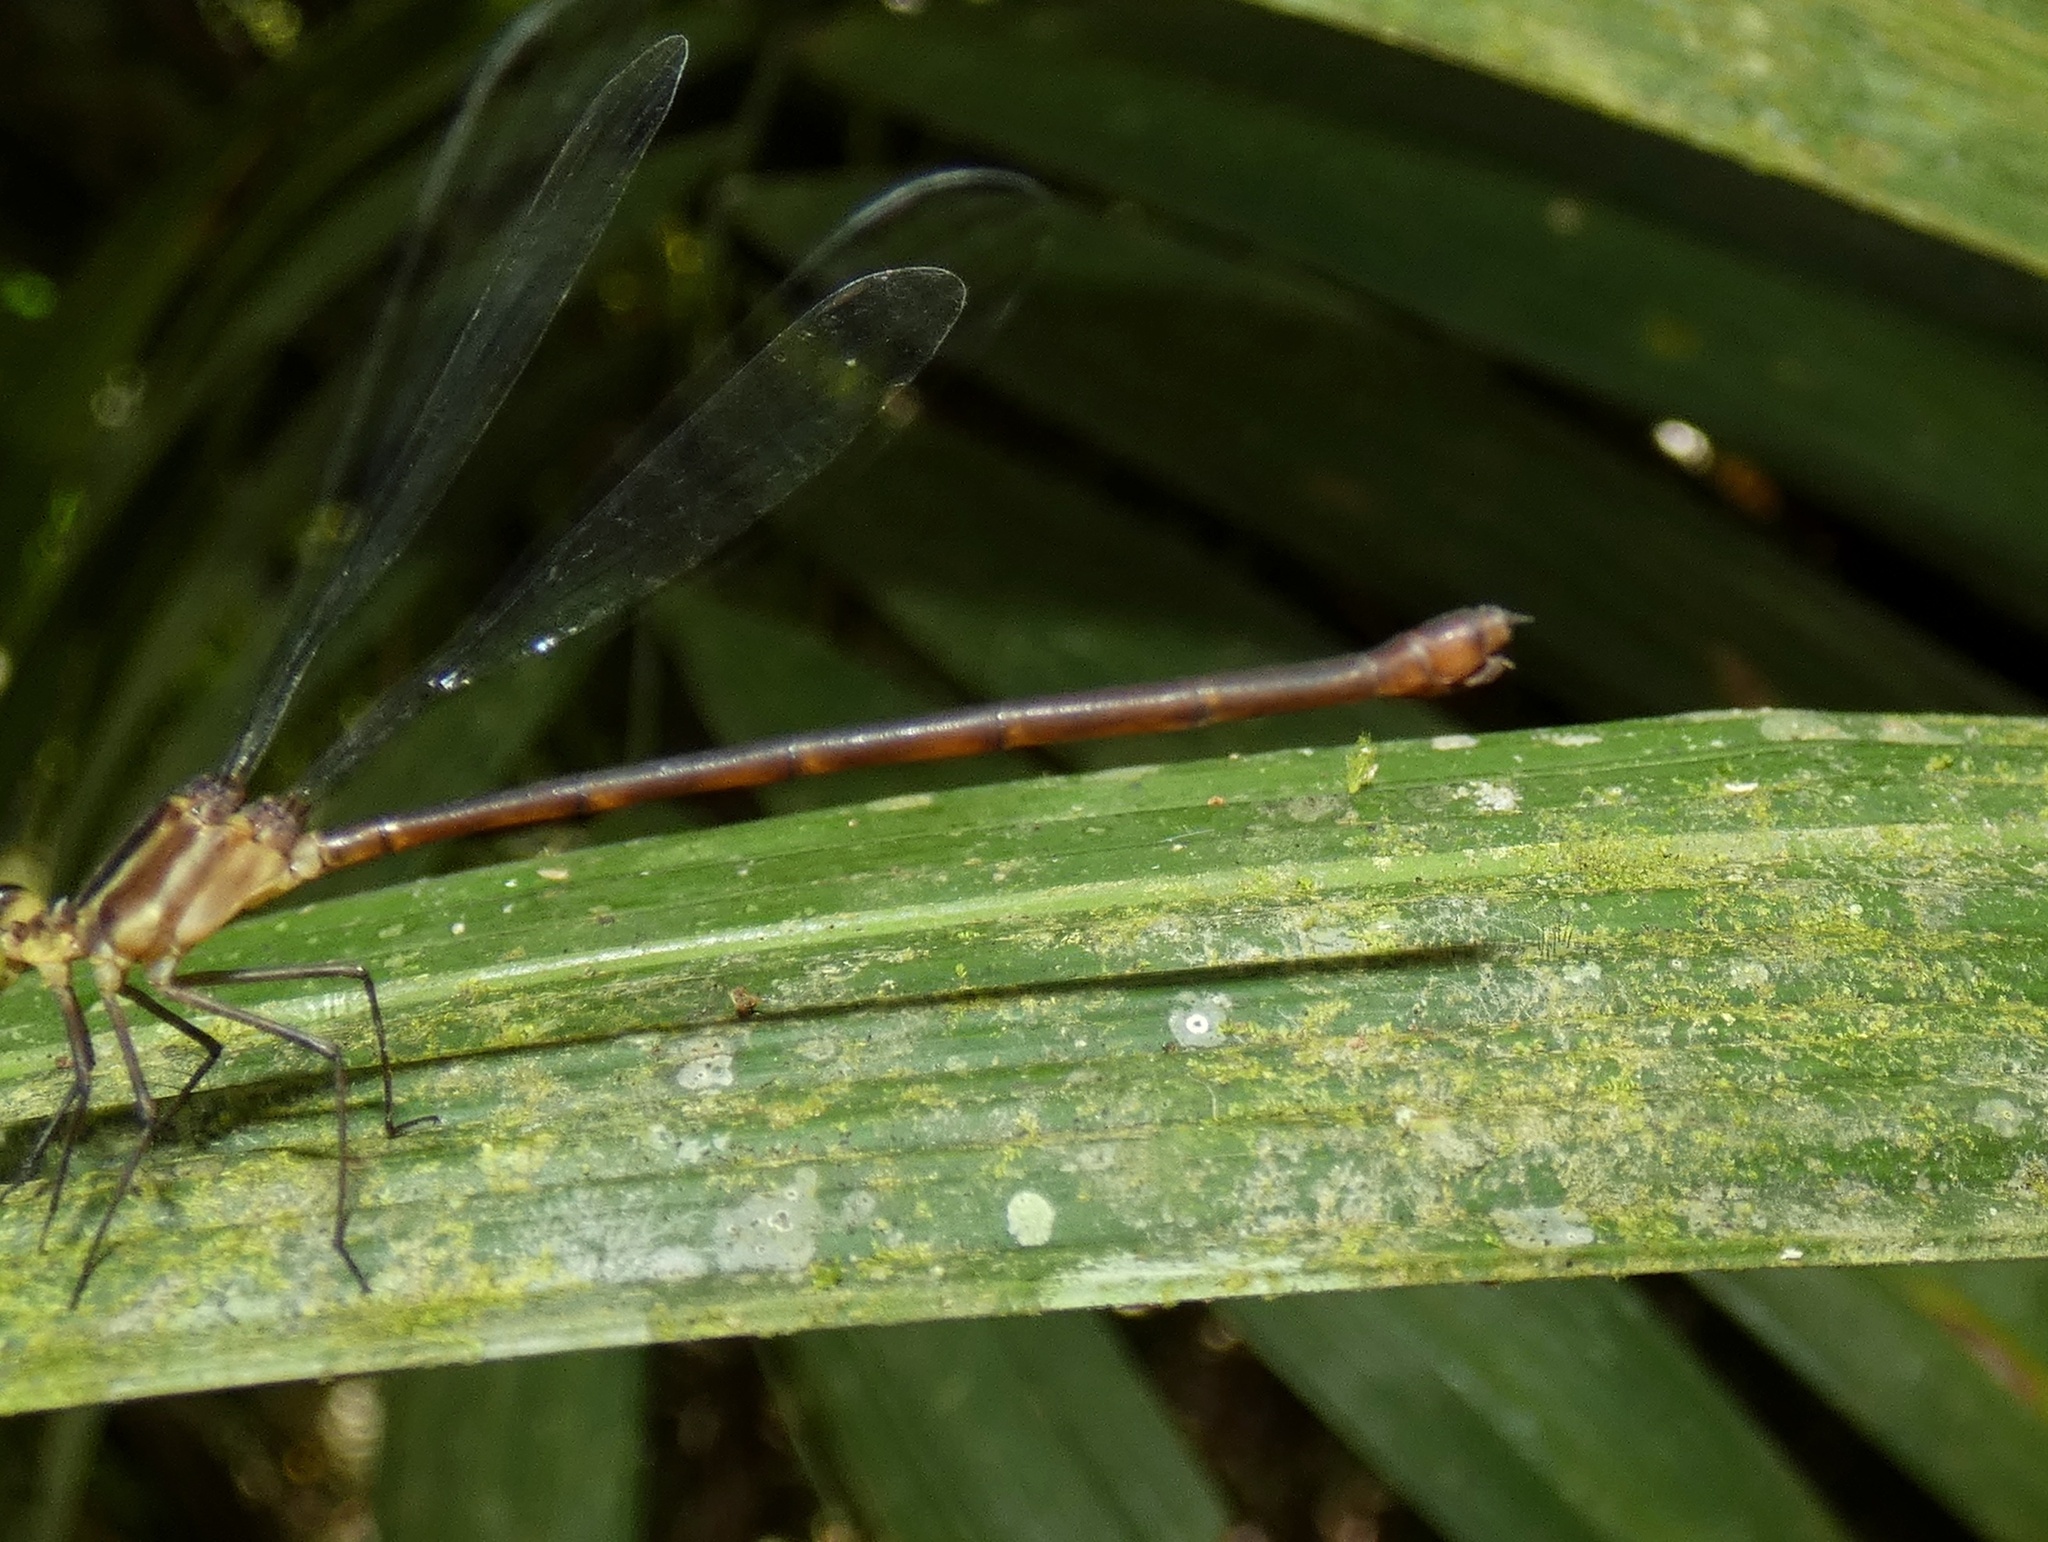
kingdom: Animalia
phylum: Arthropoda
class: Insecta
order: Odonata
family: Heteragrionidae
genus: Heteragrion
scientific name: Heteragrion erythrogastrum
